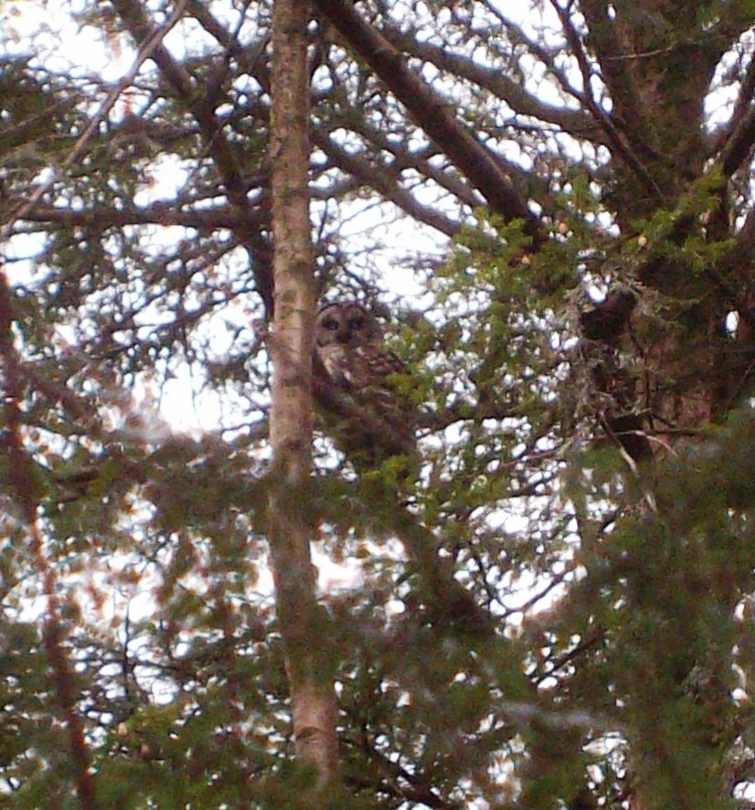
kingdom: Animalia
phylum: Chordata
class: Aves
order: Strigiformes
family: Strigidae
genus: Strix
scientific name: Strix varia
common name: Barred owl
